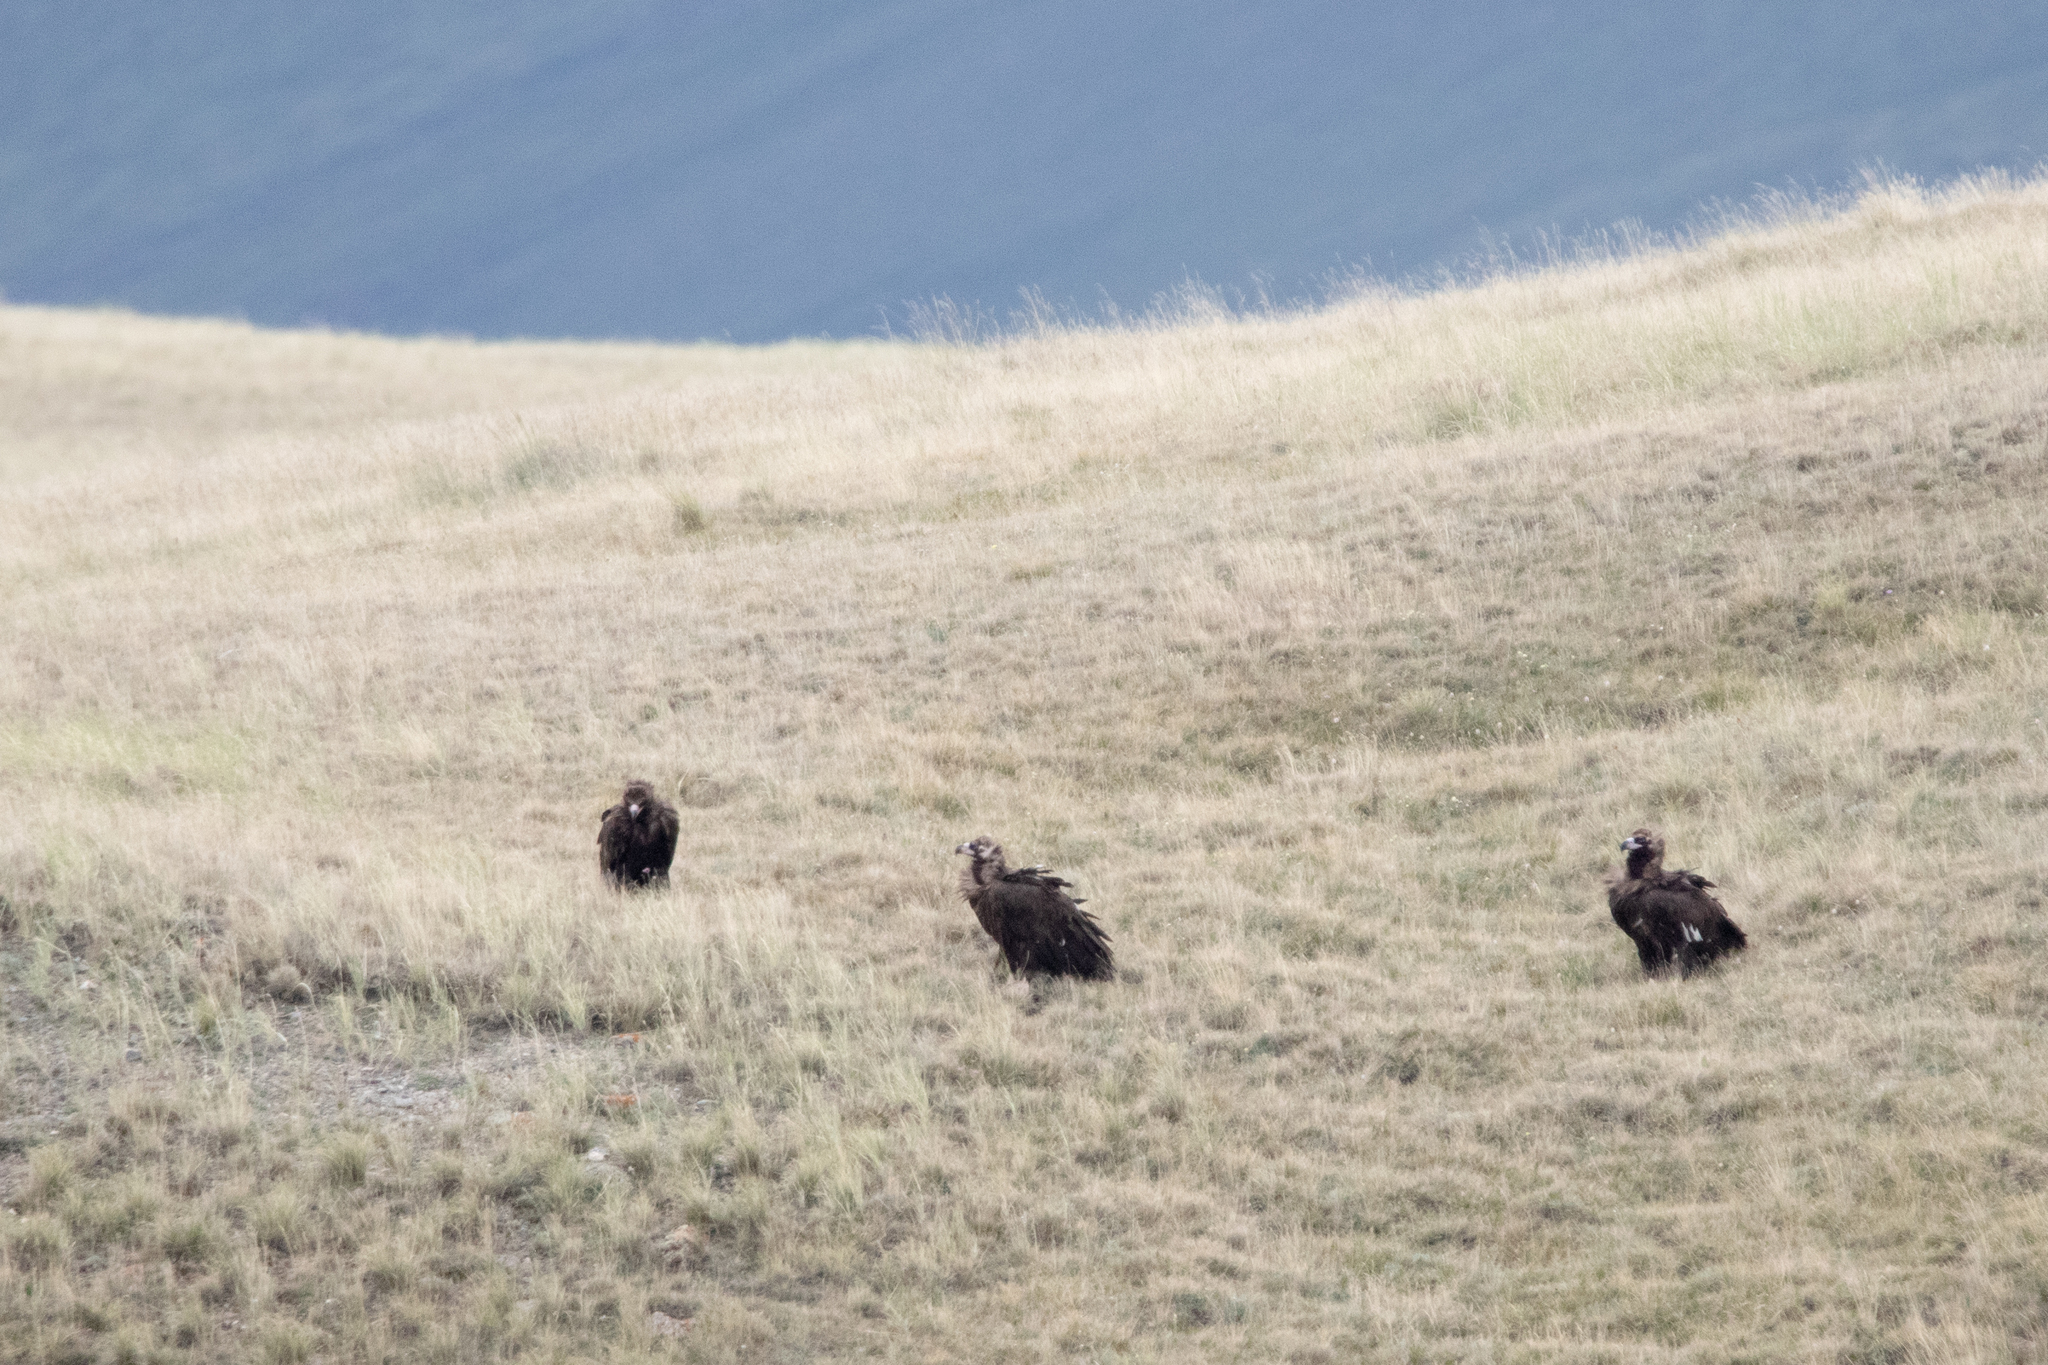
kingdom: Animalia
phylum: Chordata
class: Aves
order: Accipitriformes
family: Accipitridae
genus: Aegypius
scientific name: Aegypius monachus
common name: Cinereous vulture
